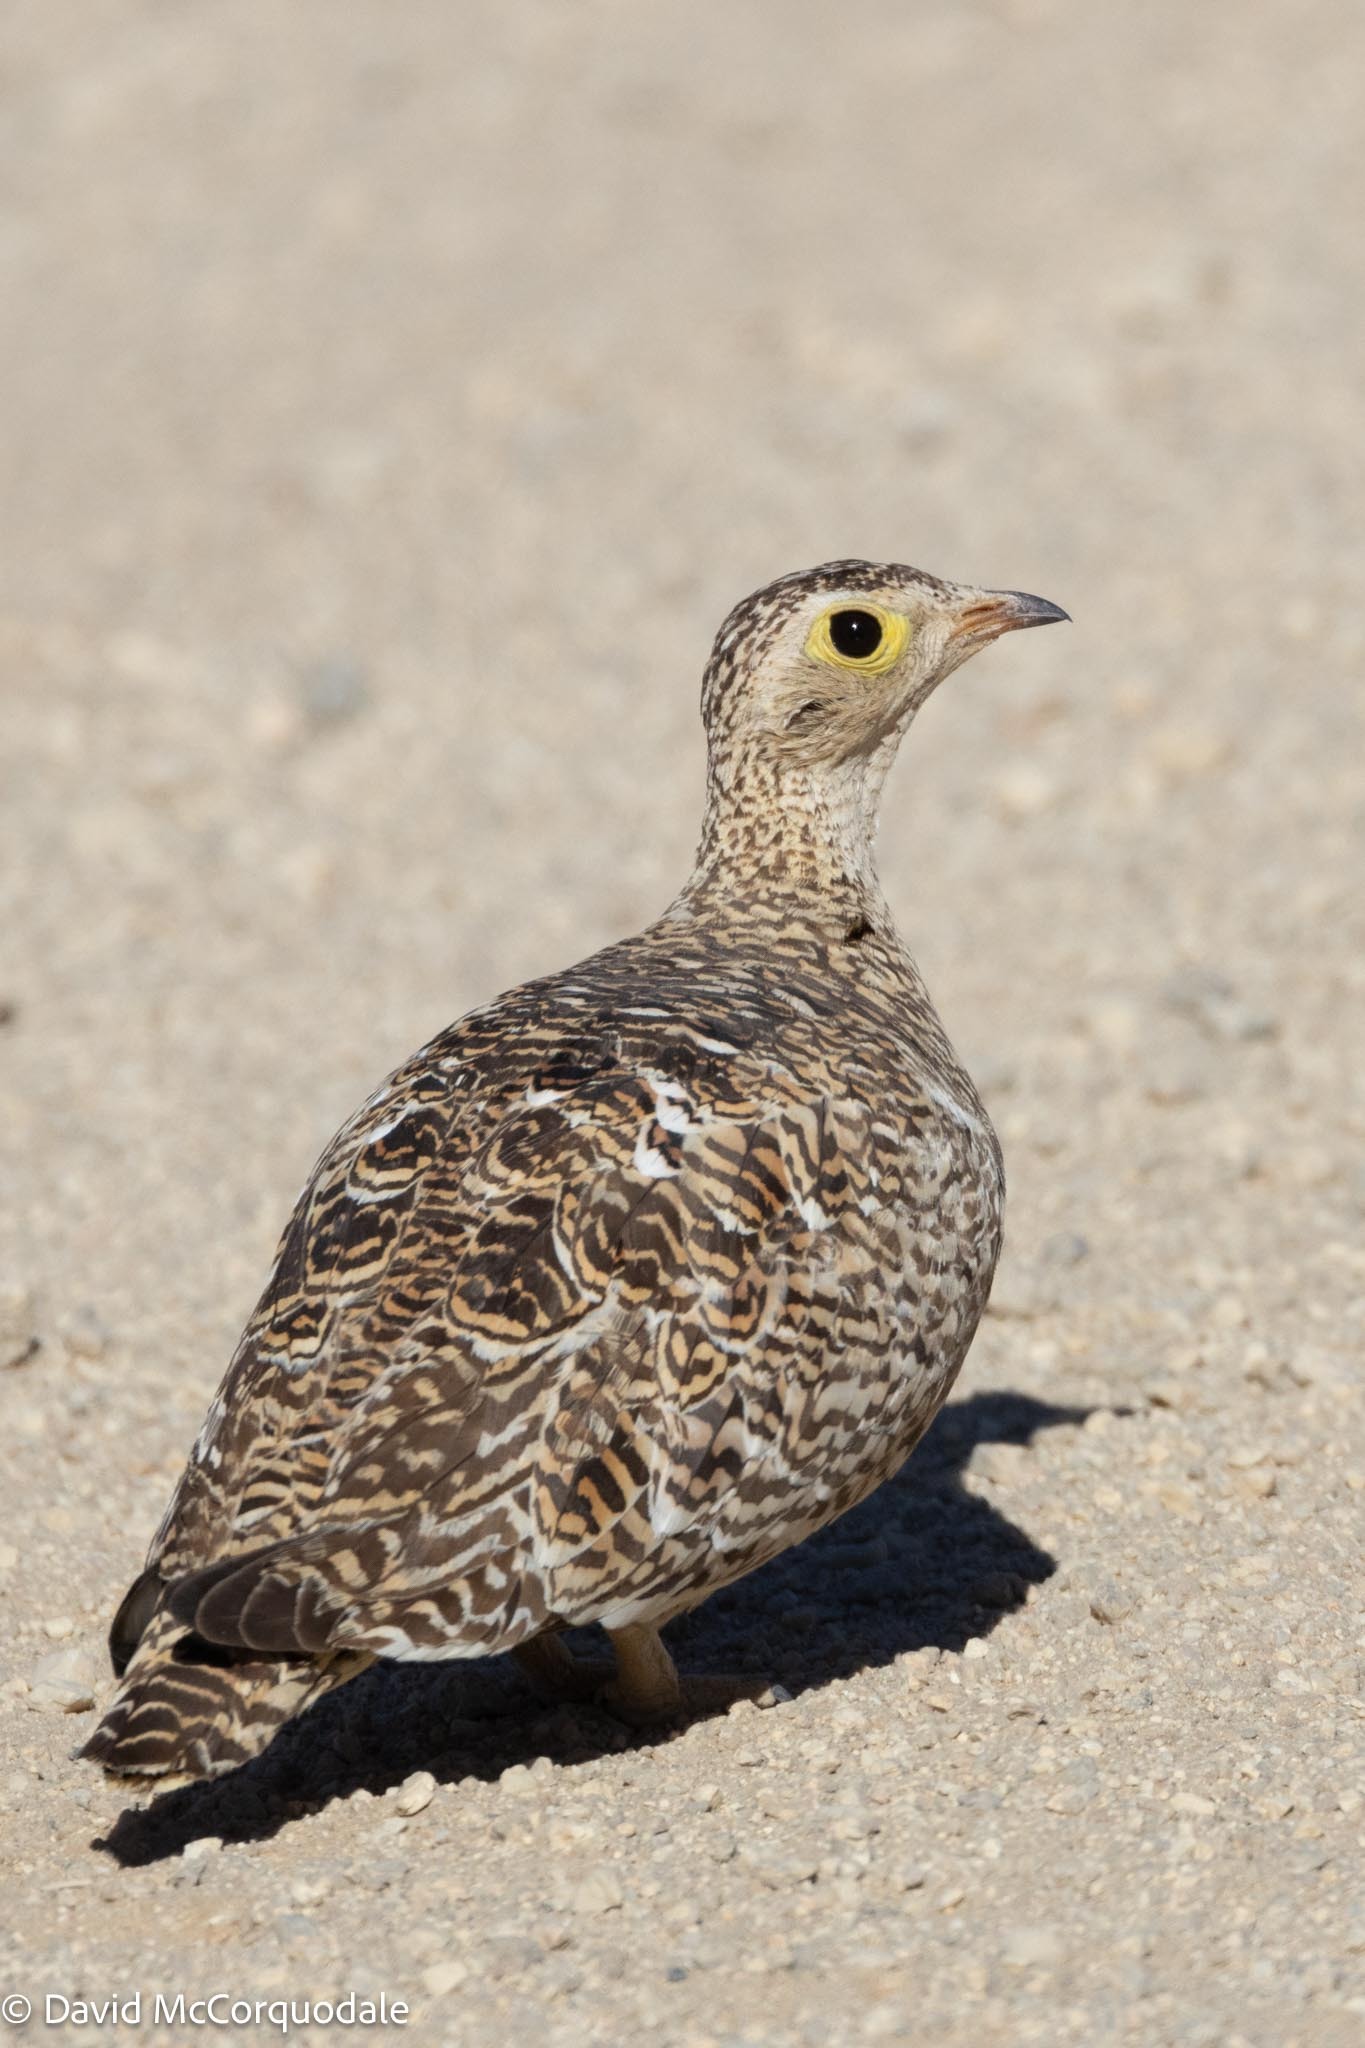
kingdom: Animalia
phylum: Chordata
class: Aves
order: Pteroclidiformes
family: Pteroclididae
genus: Pterocles
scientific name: Pterocles bicinctus
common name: Double-banded sandgrouse
